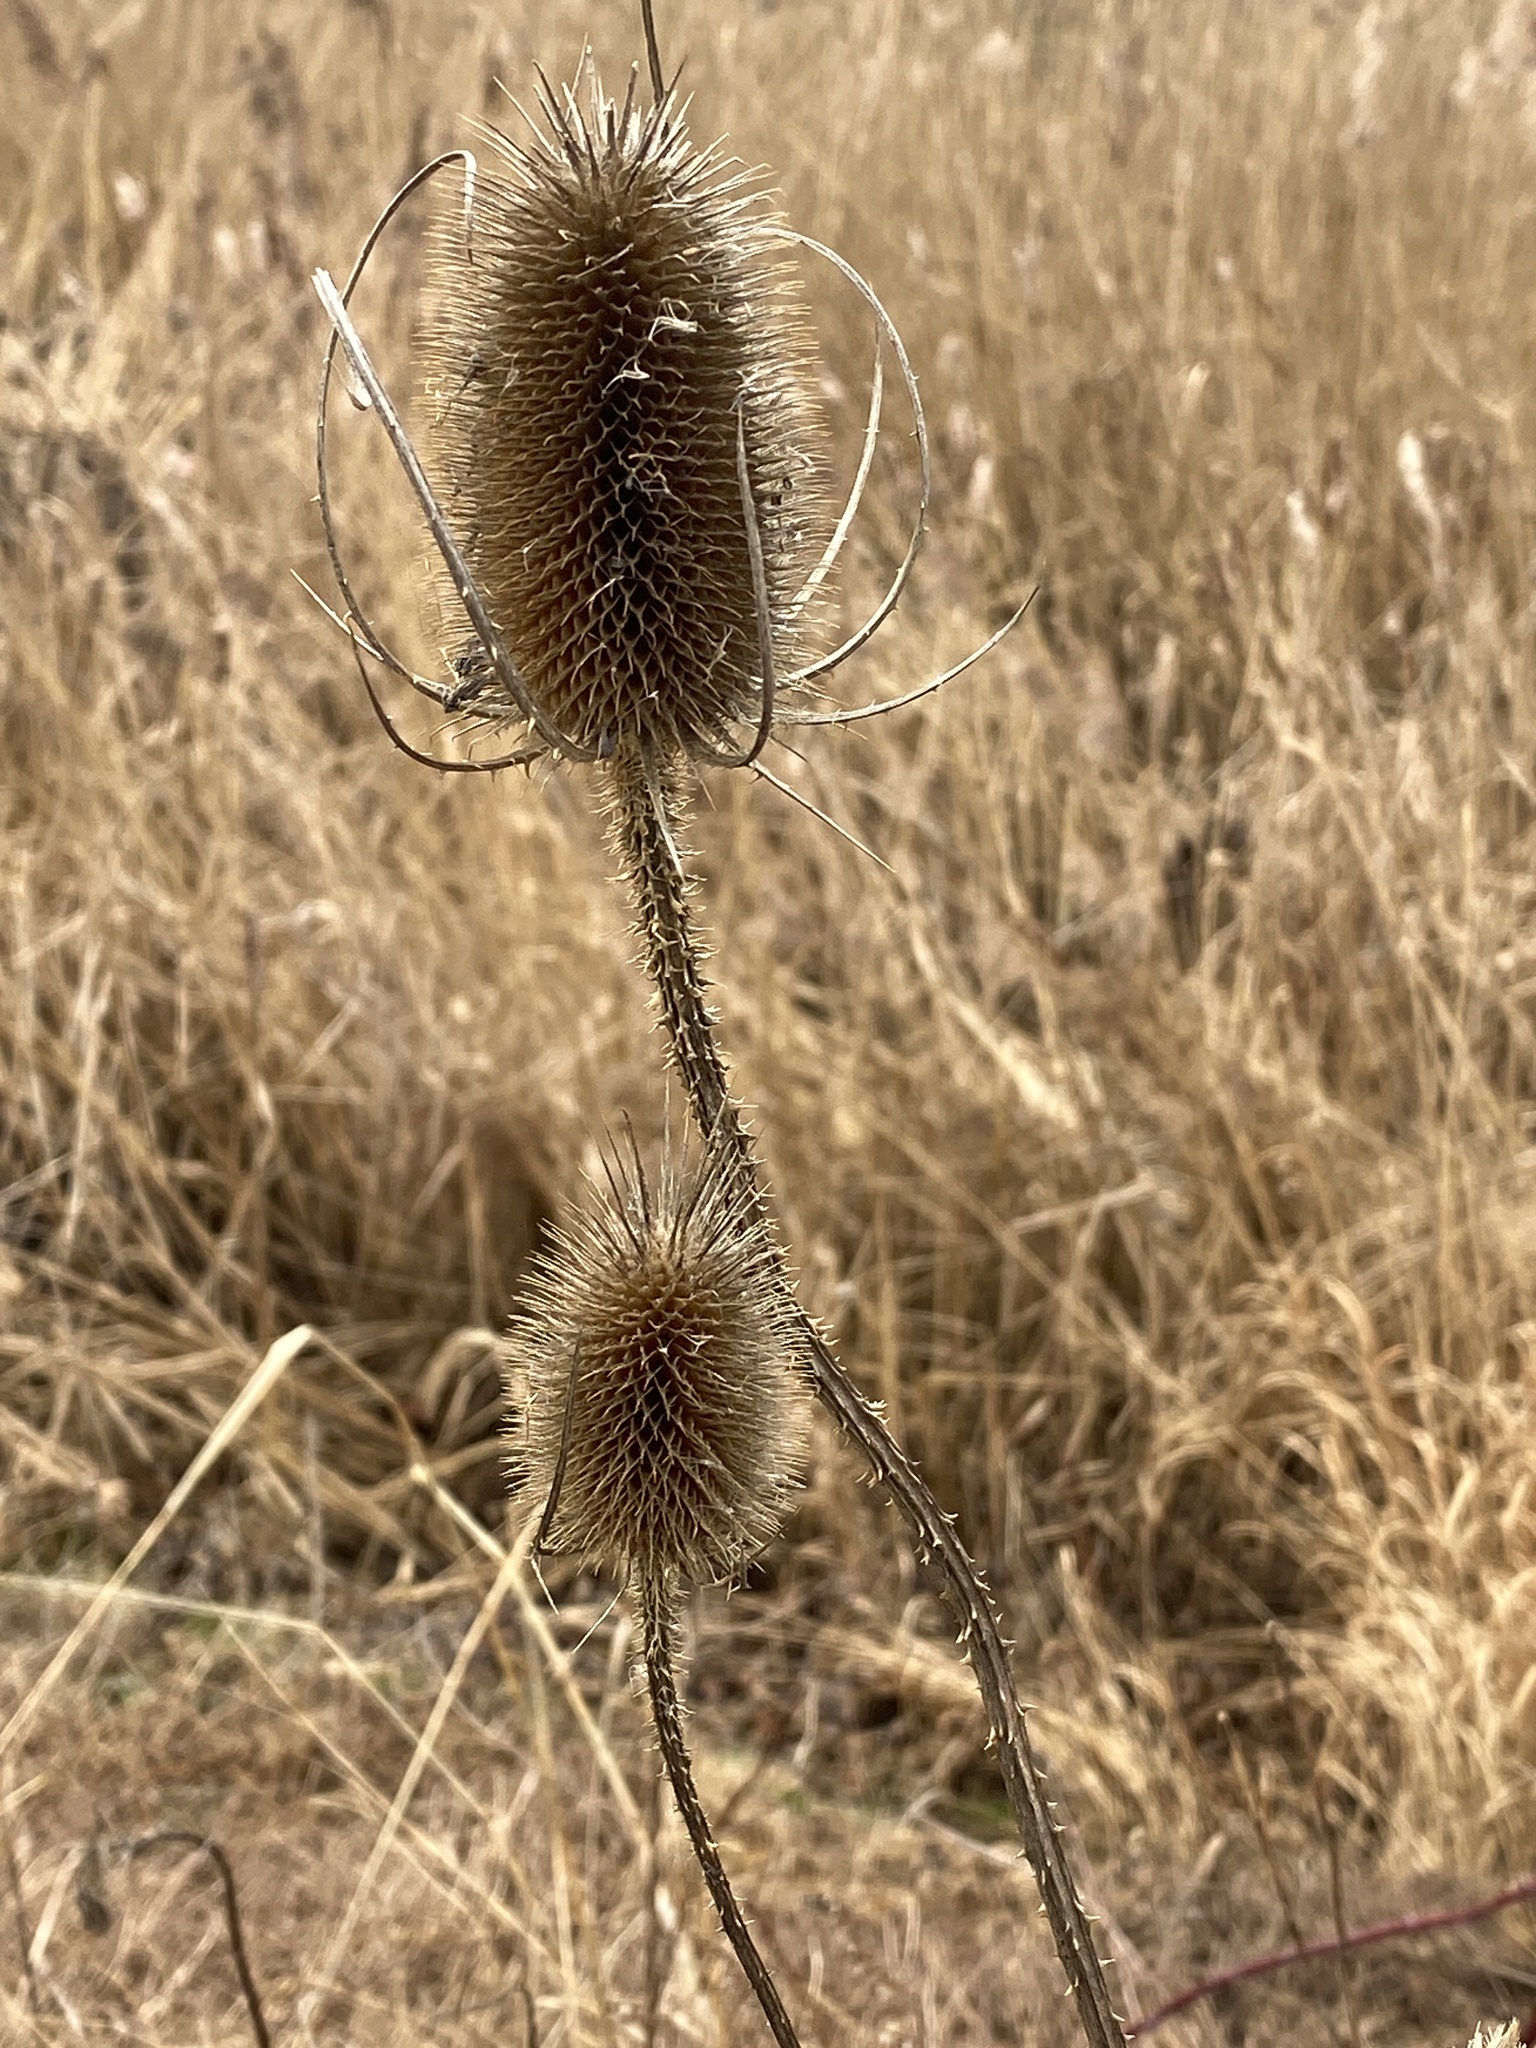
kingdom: Plantae
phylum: Tracheophyta
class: Magnoliopsida
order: Dipsacales
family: Caprifoliaceae
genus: Dipsacus
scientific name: Dipsacus fullonum
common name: Teasel
